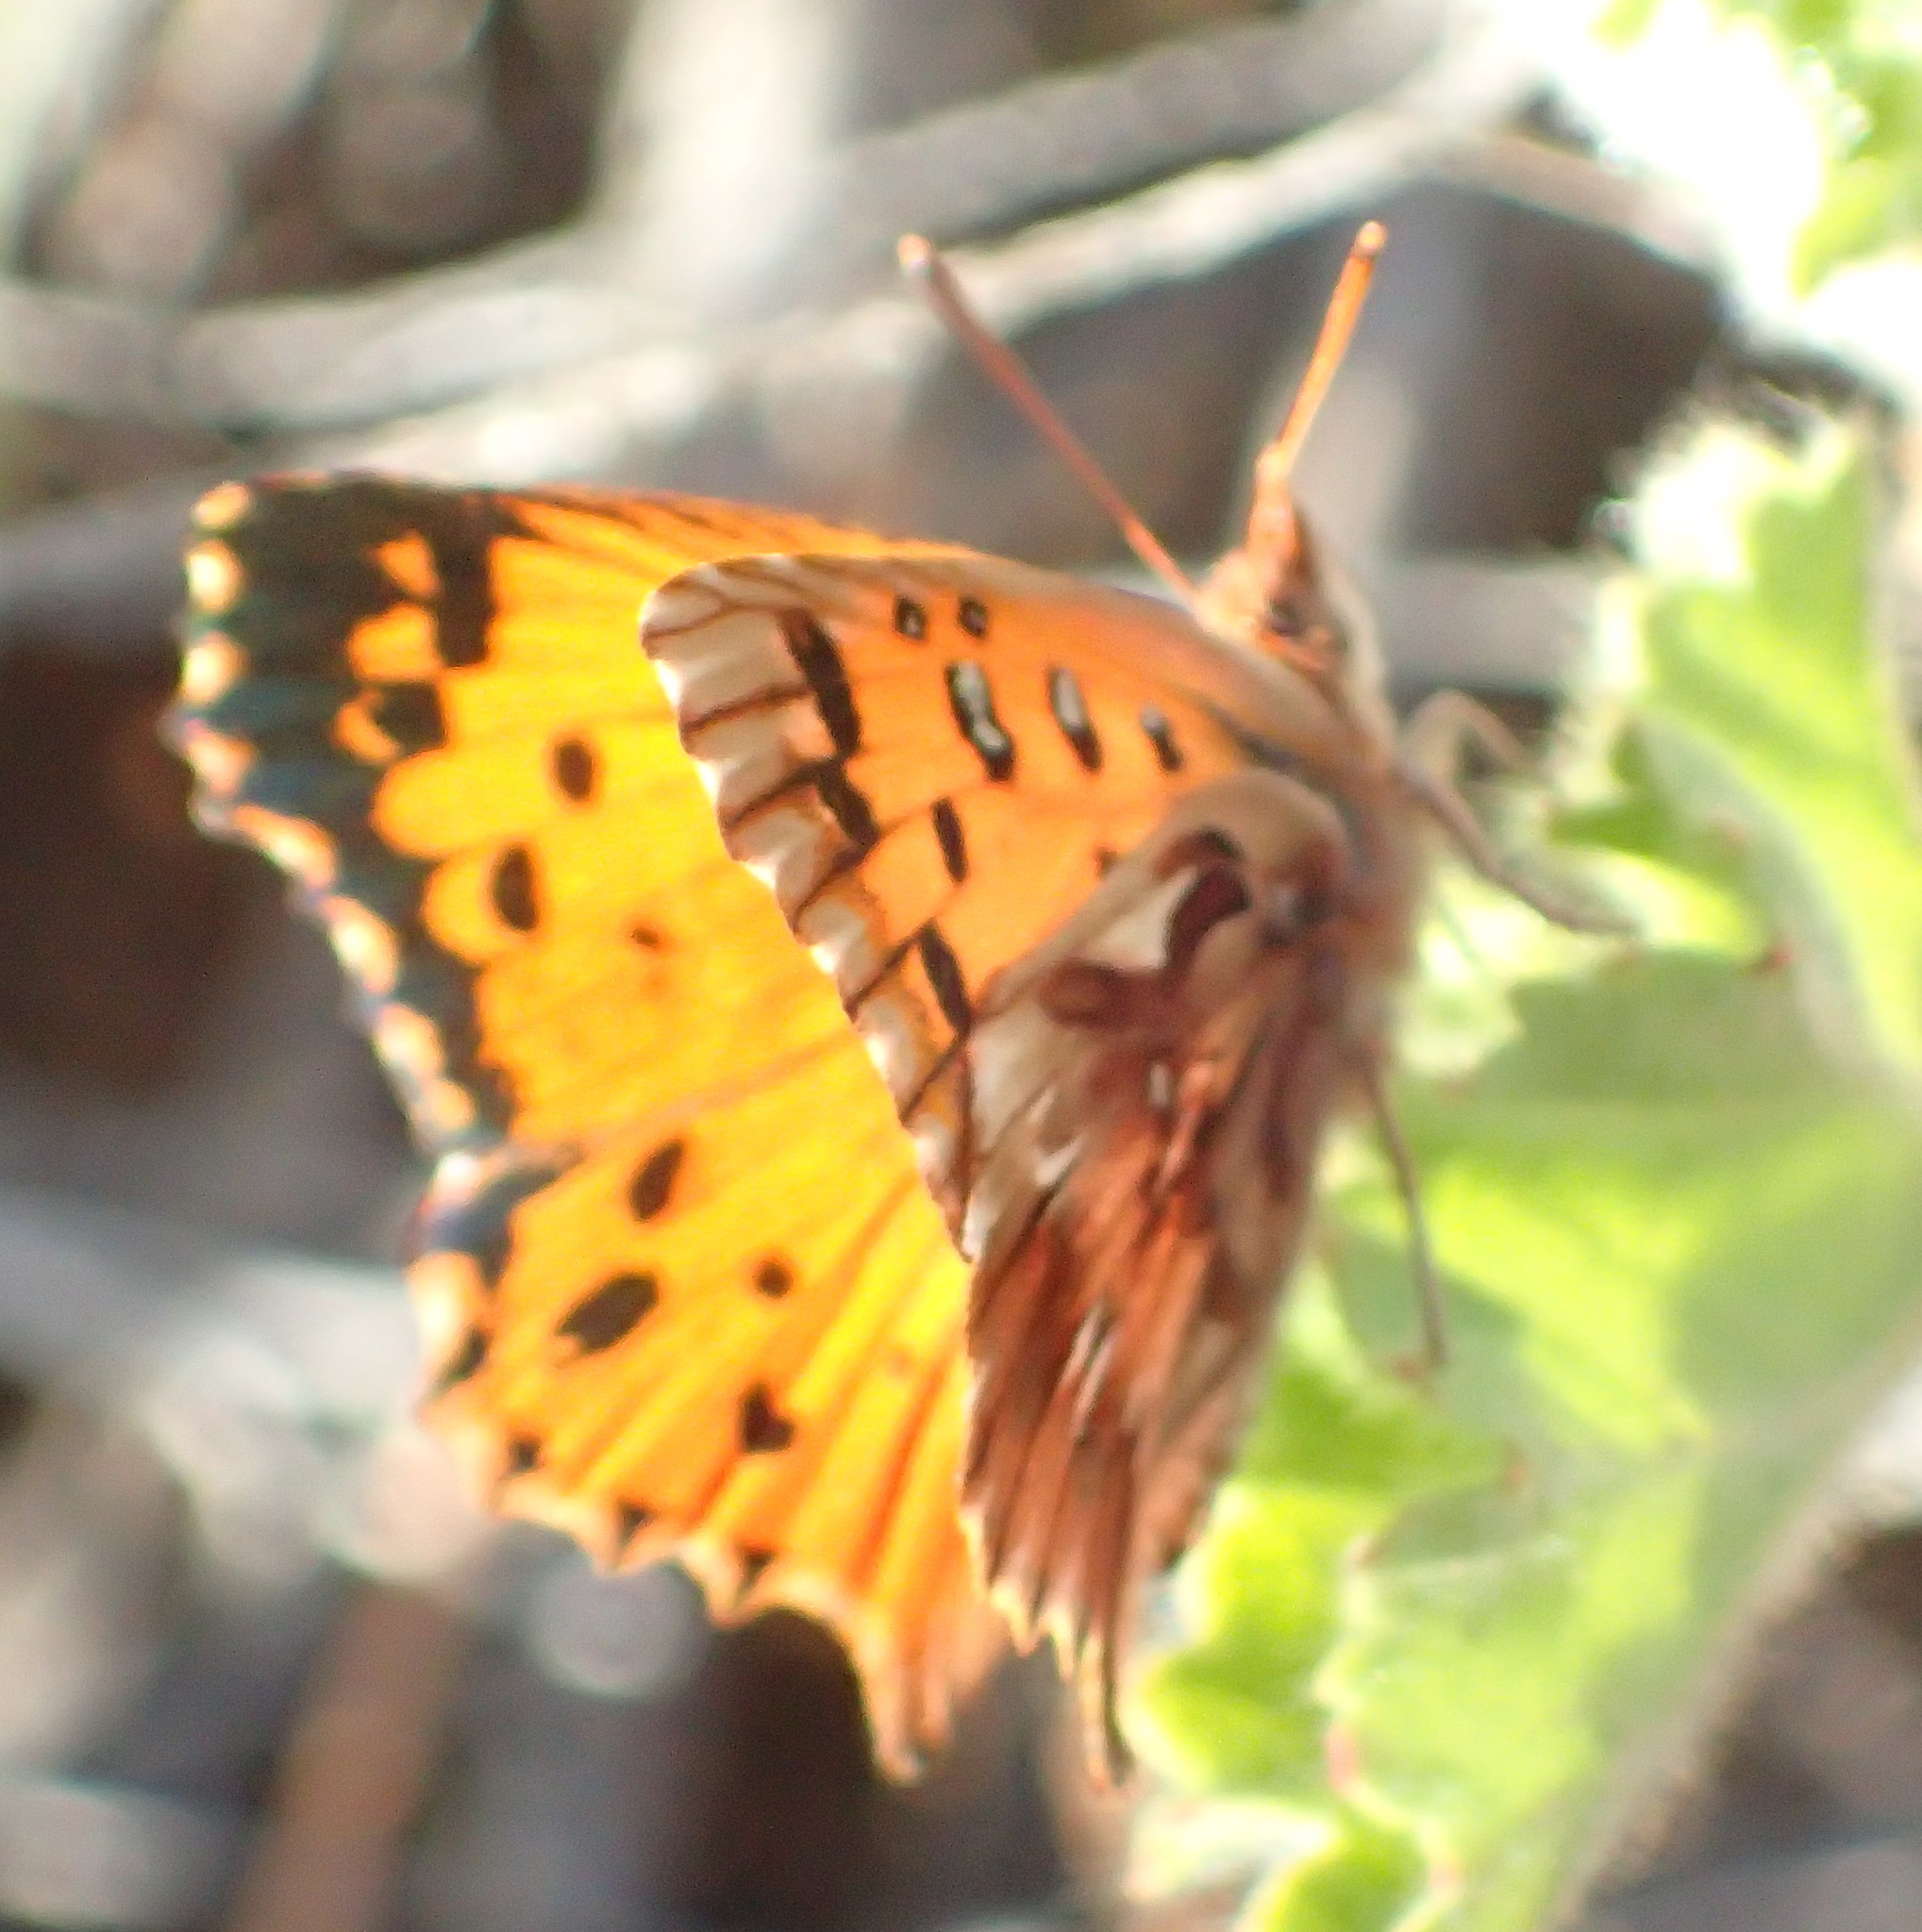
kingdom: Animalia
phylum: Arthropoda
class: Insecta
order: Lepidoptera
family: Lycaenidae
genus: Chrysoritis
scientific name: Chrysoritis
